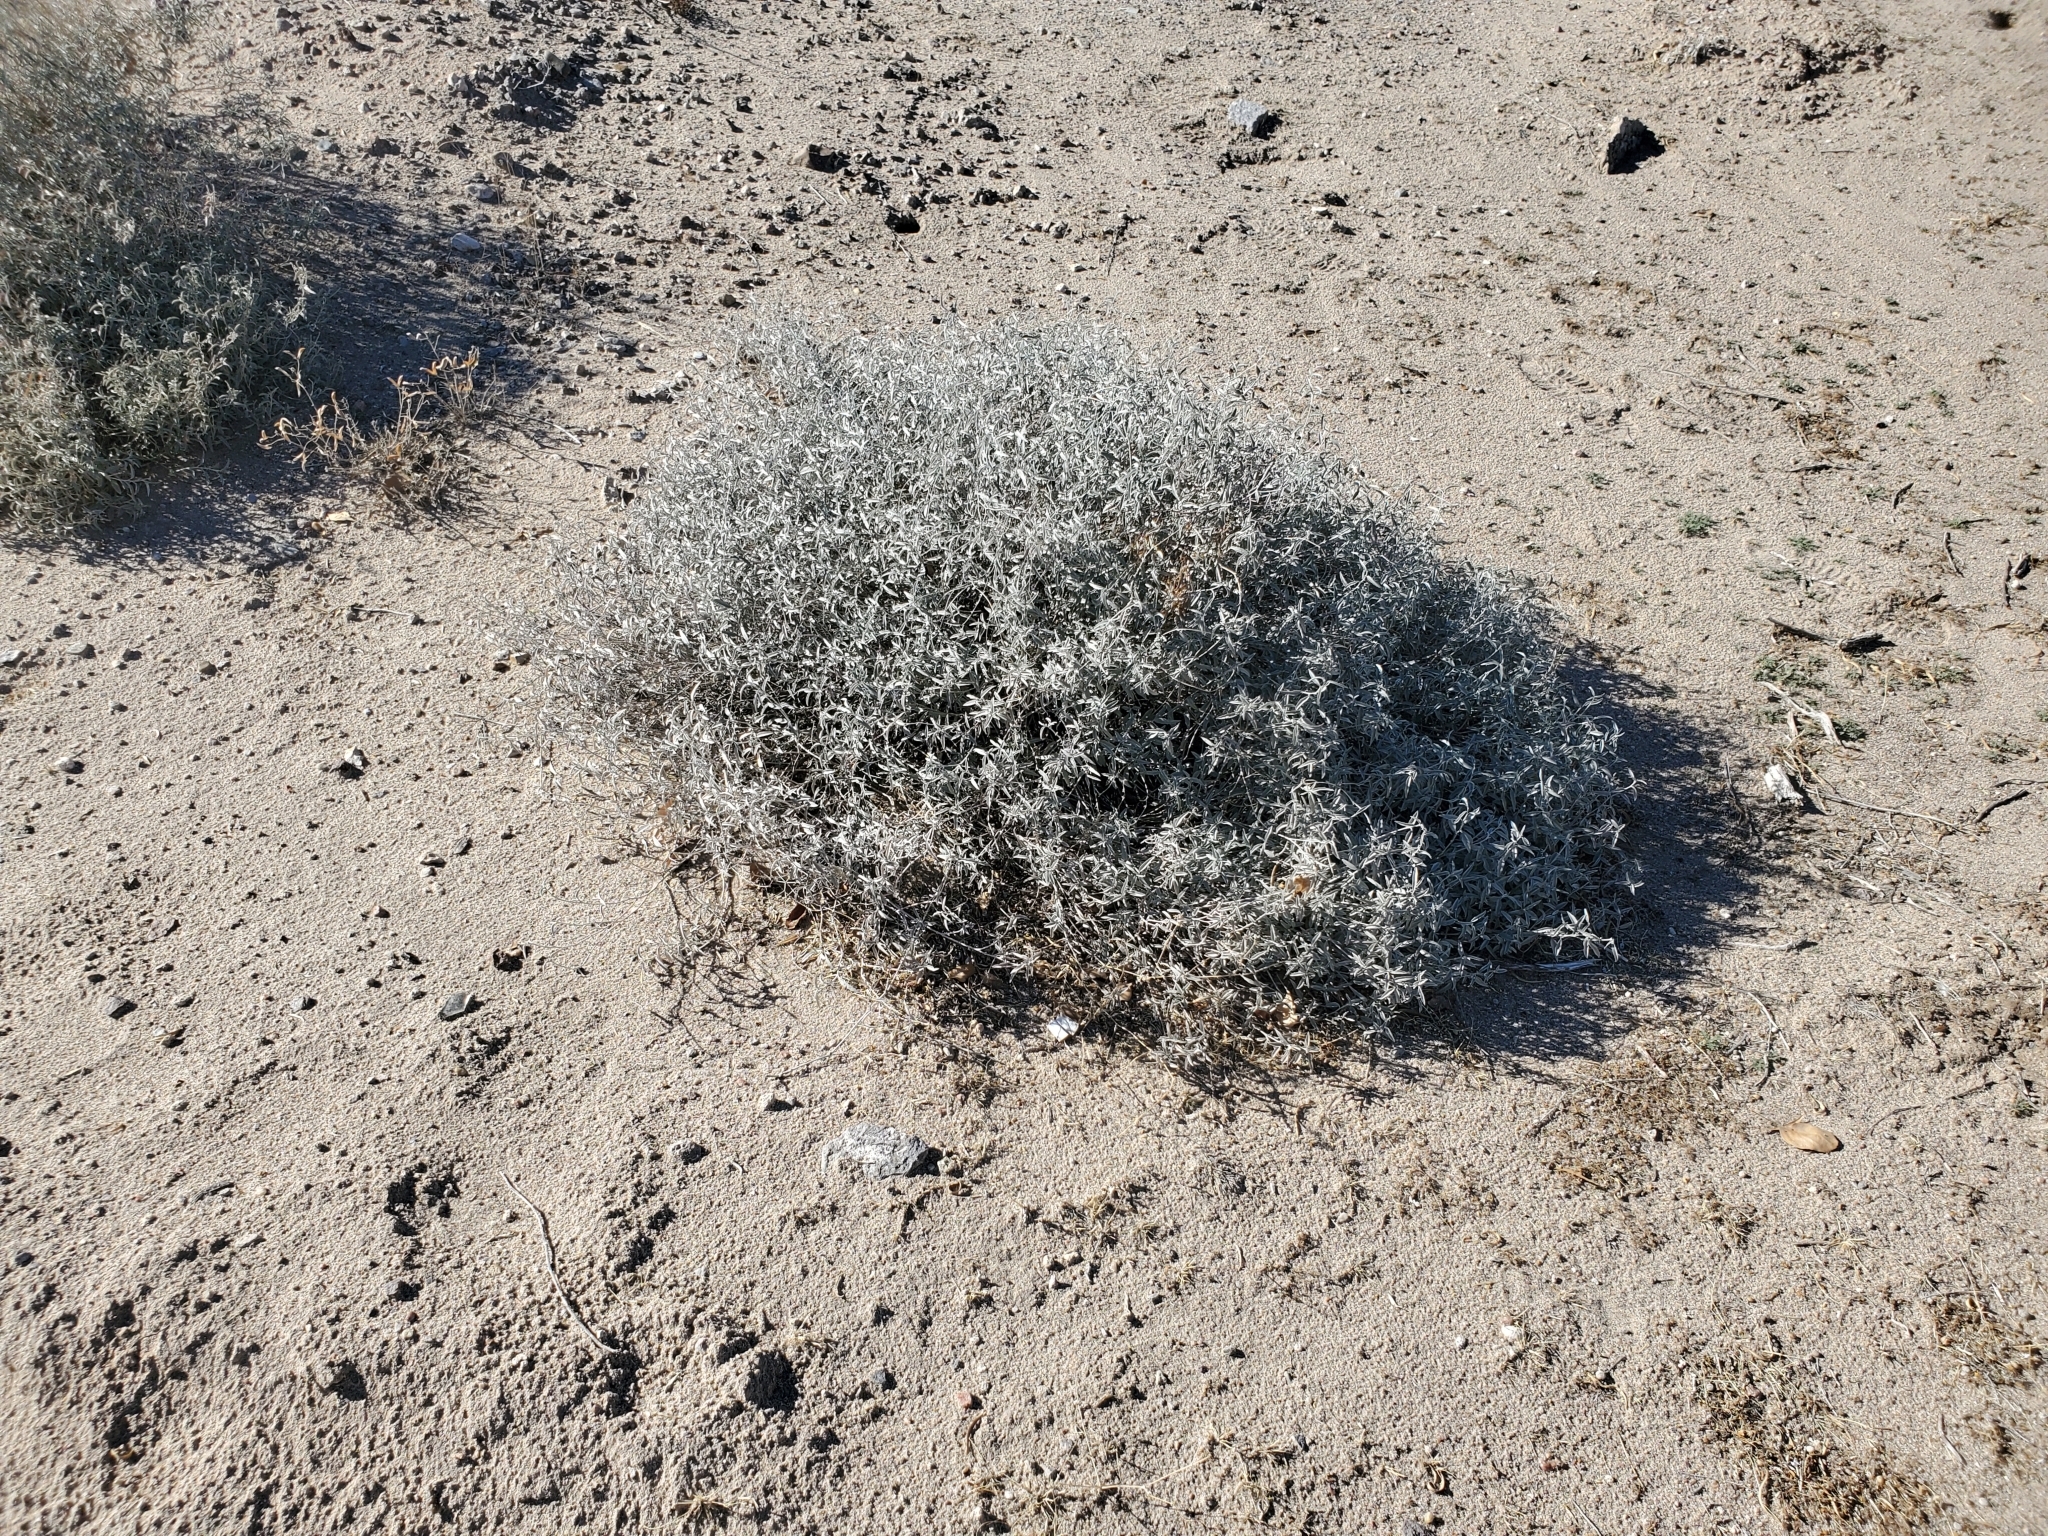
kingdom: Plantae
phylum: Tracheophyta
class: Magnoliopsida
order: Malpighiales
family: Euphorbiaceae
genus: Croton
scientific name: Croton dioicus
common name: Grassland croton
